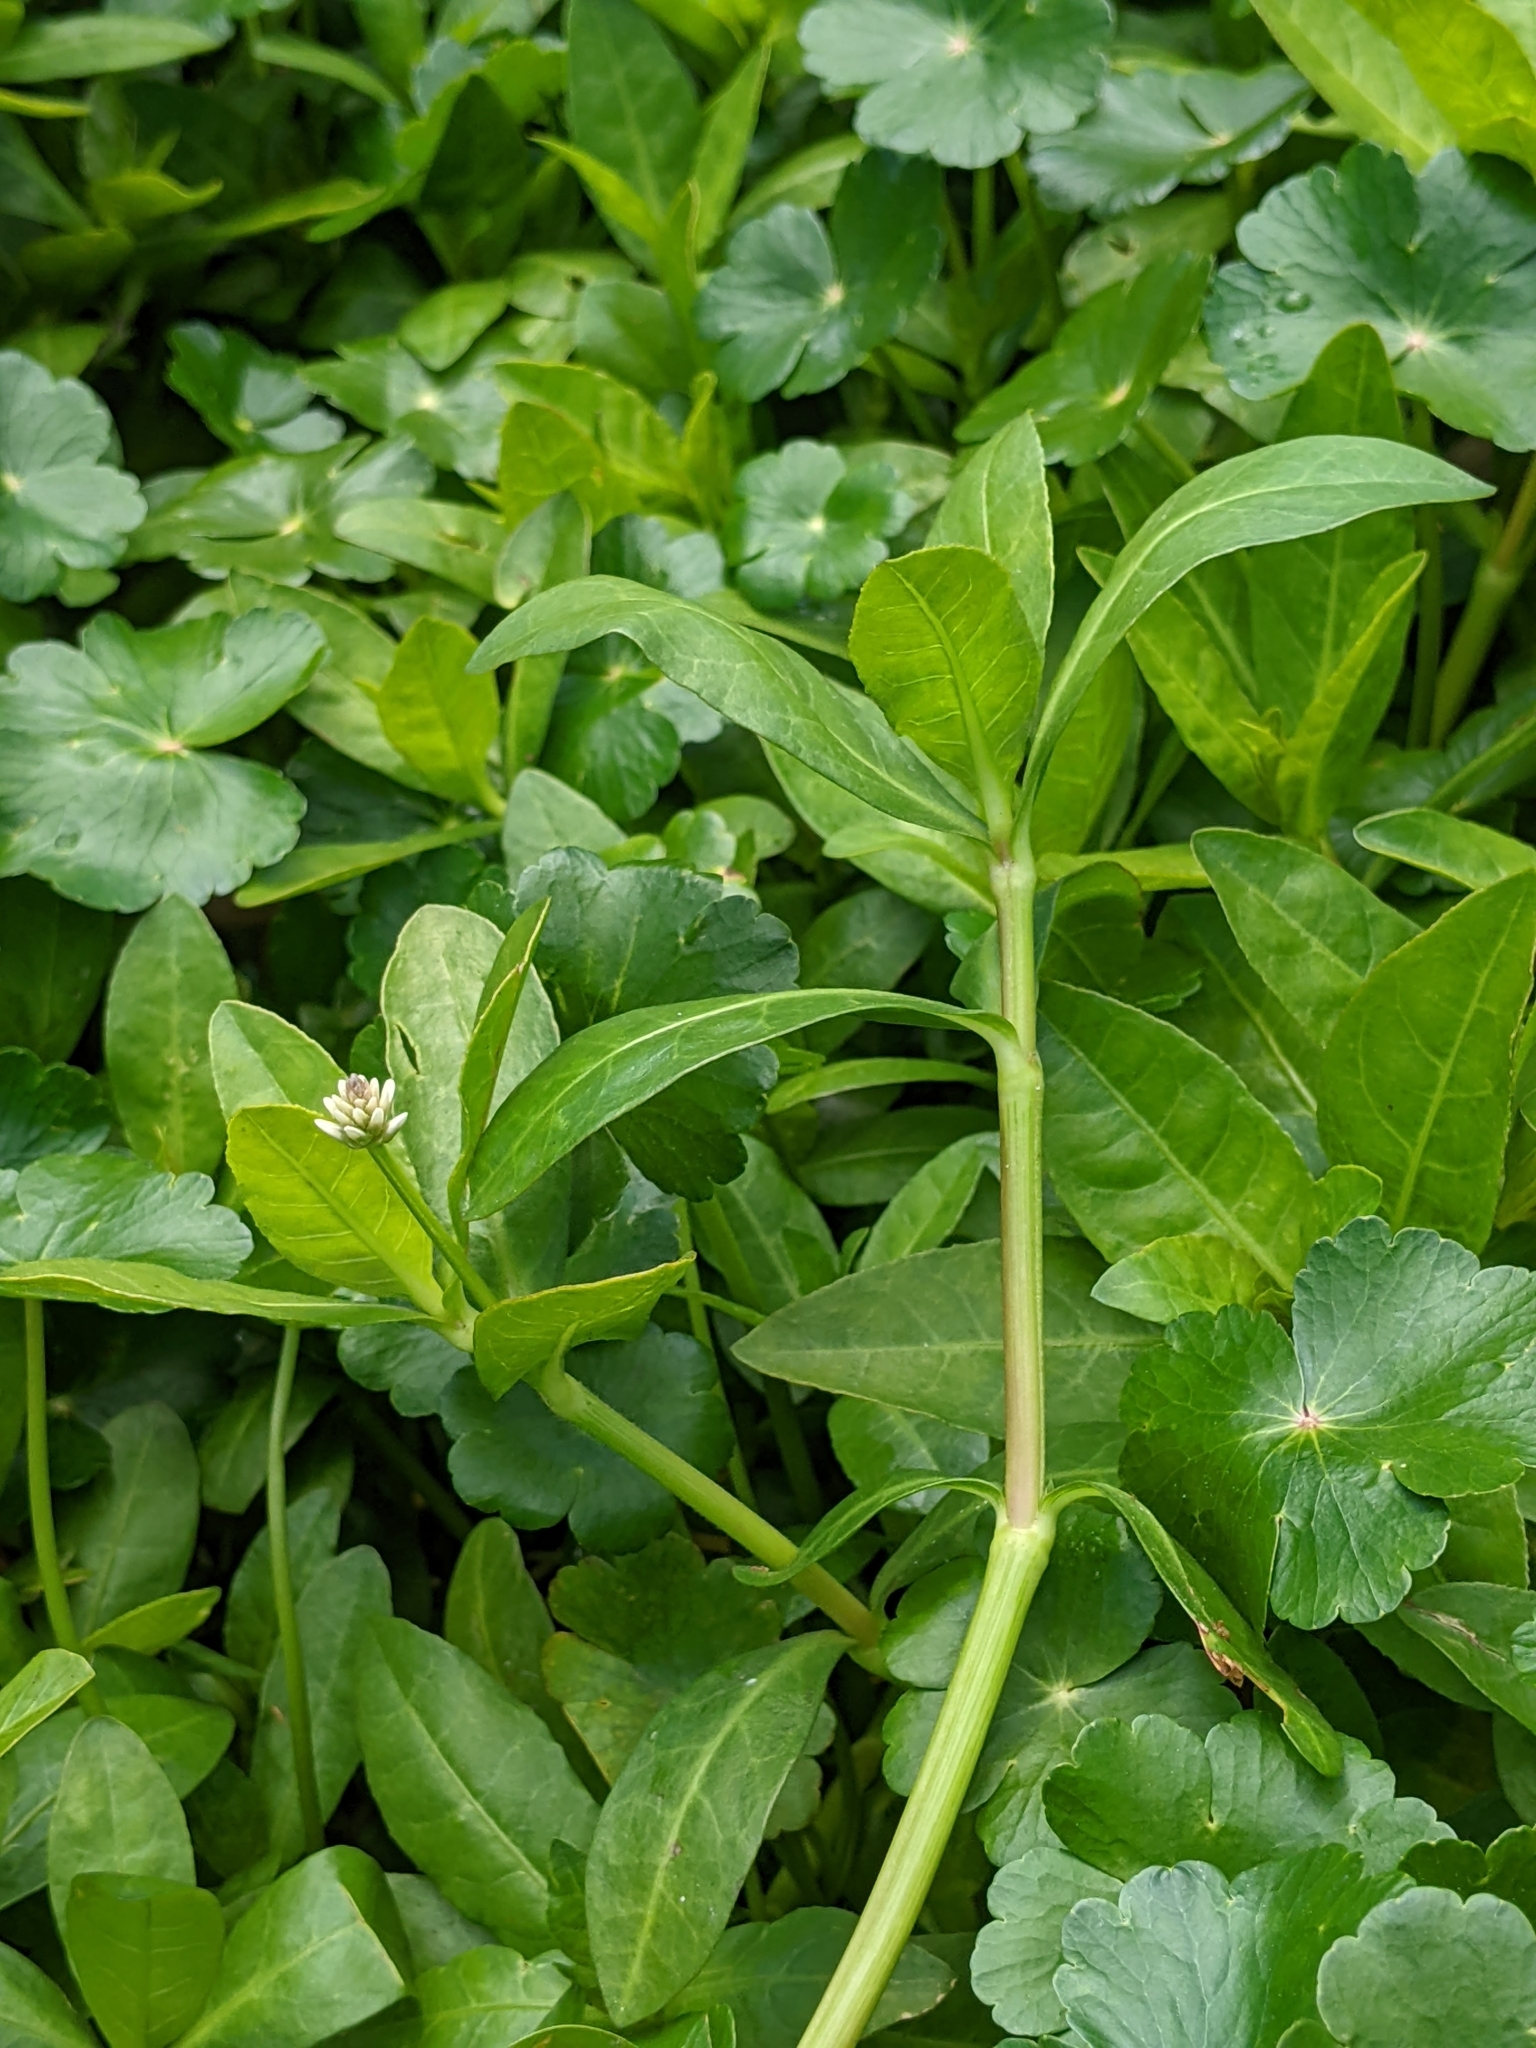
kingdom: Plantae
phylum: Tracheophyta
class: Magnoliopsida
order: Caryophyllales
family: Amaranthaceae
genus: Alternanthera
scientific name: Alternanthera philoxeroides
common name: Alligatorweed
